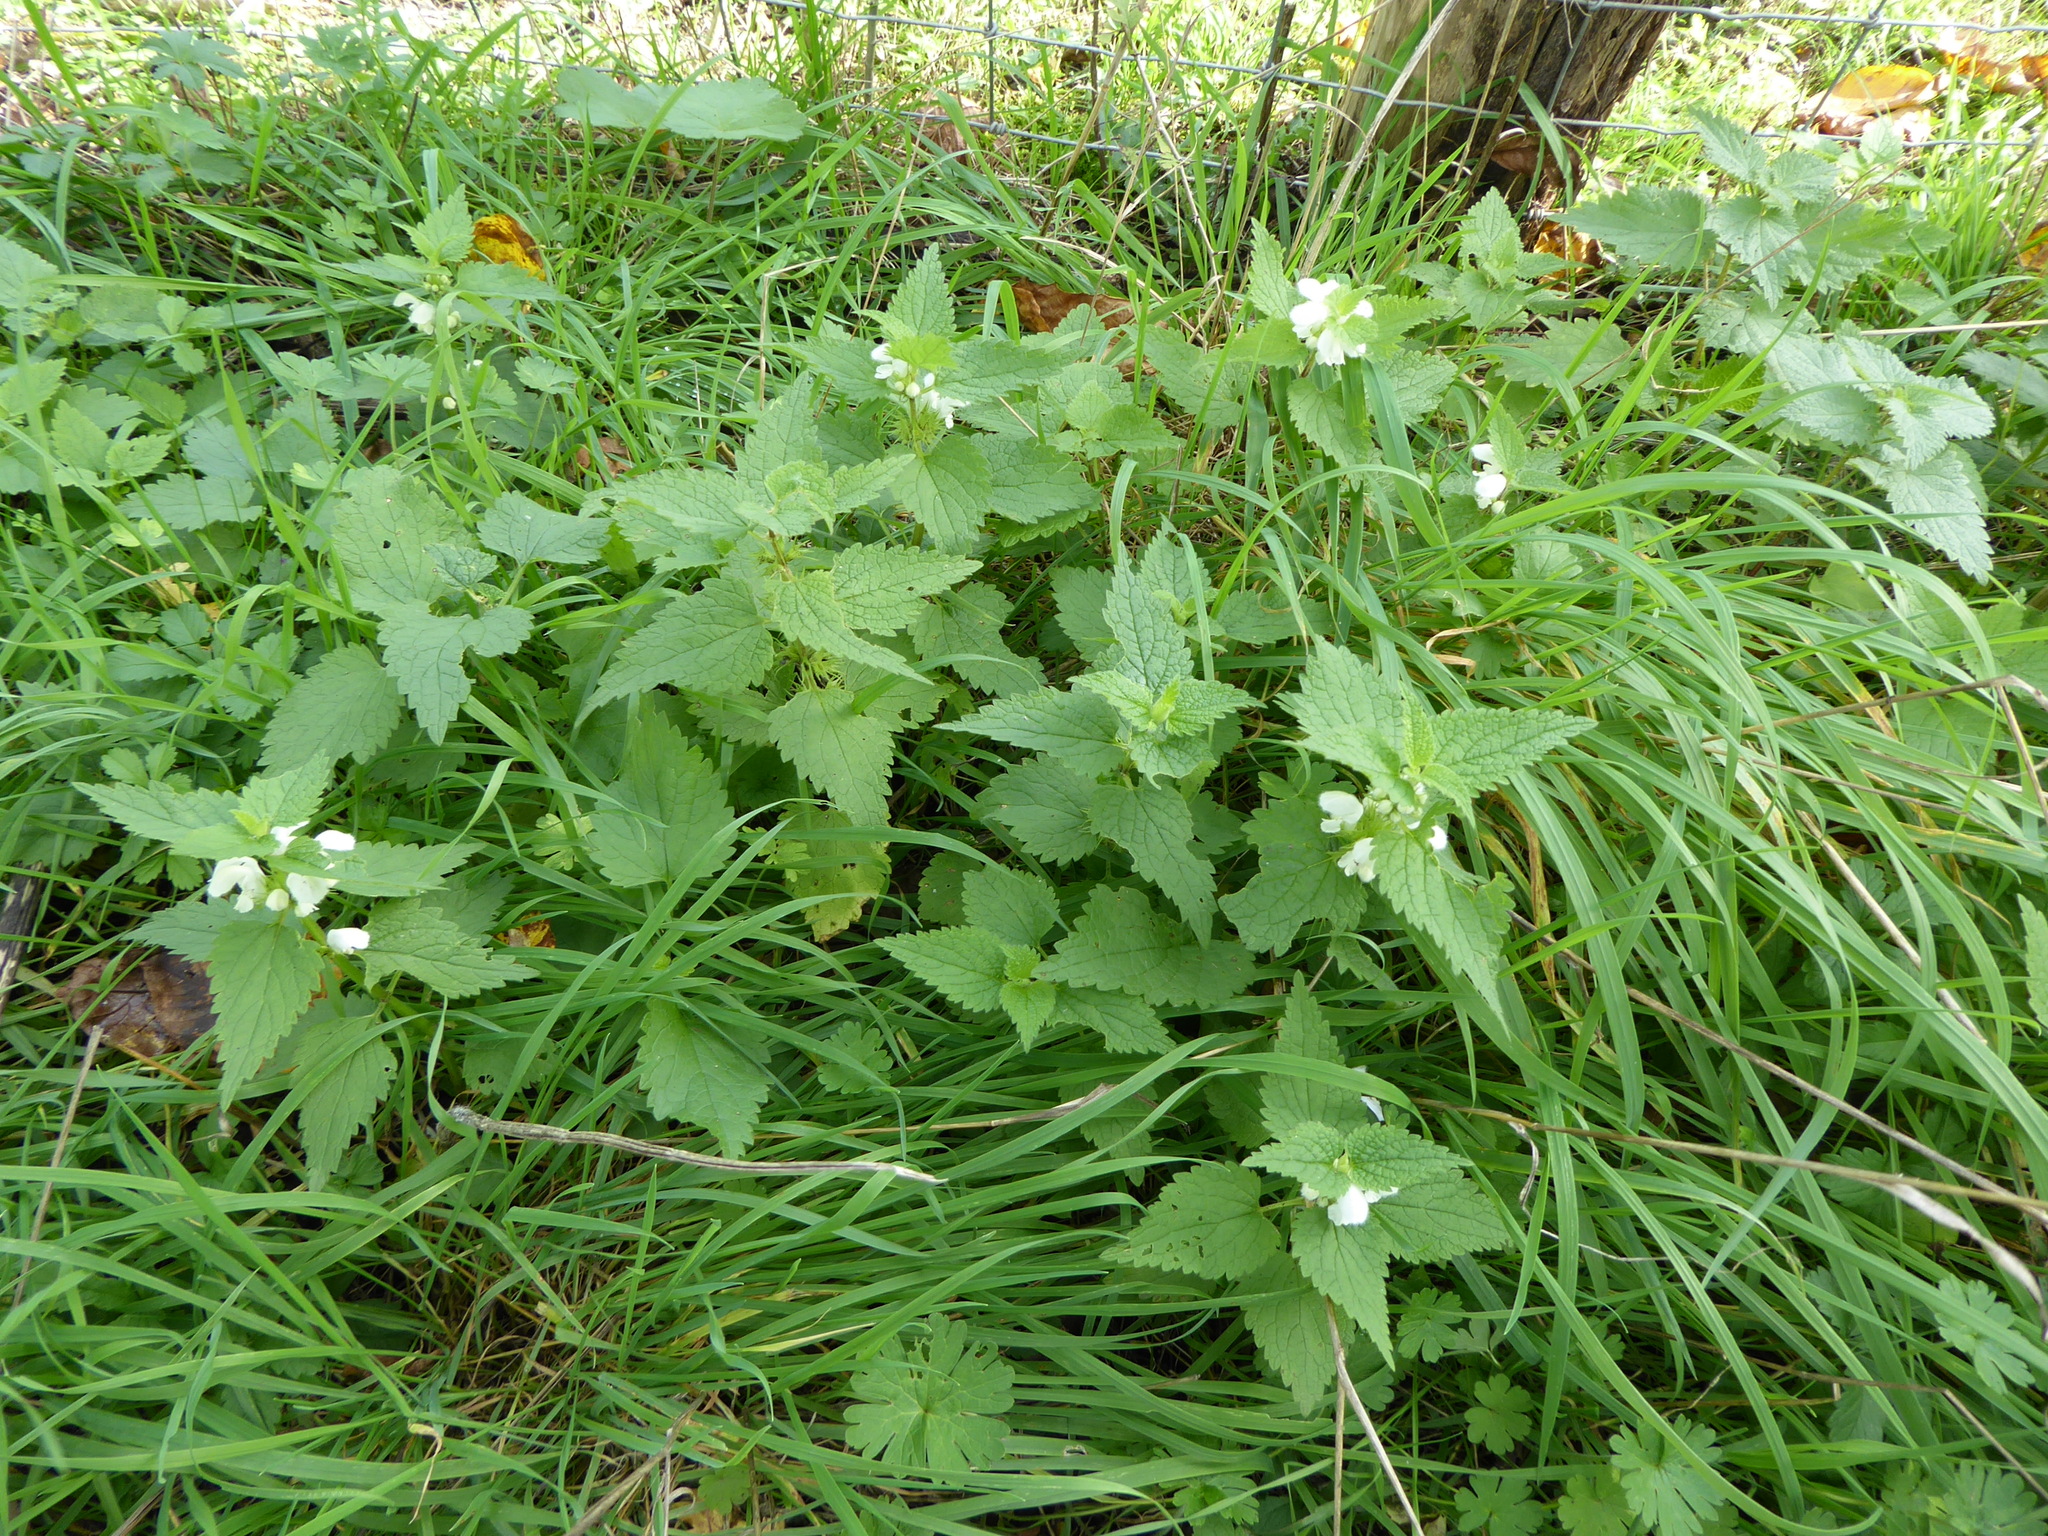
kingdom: Plantae
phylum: Tracheophyta
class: Magnoliopsida
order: Lamiales
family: Lamiaceae
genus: Lamium
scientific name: Lamium album
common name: White dead-nettle
